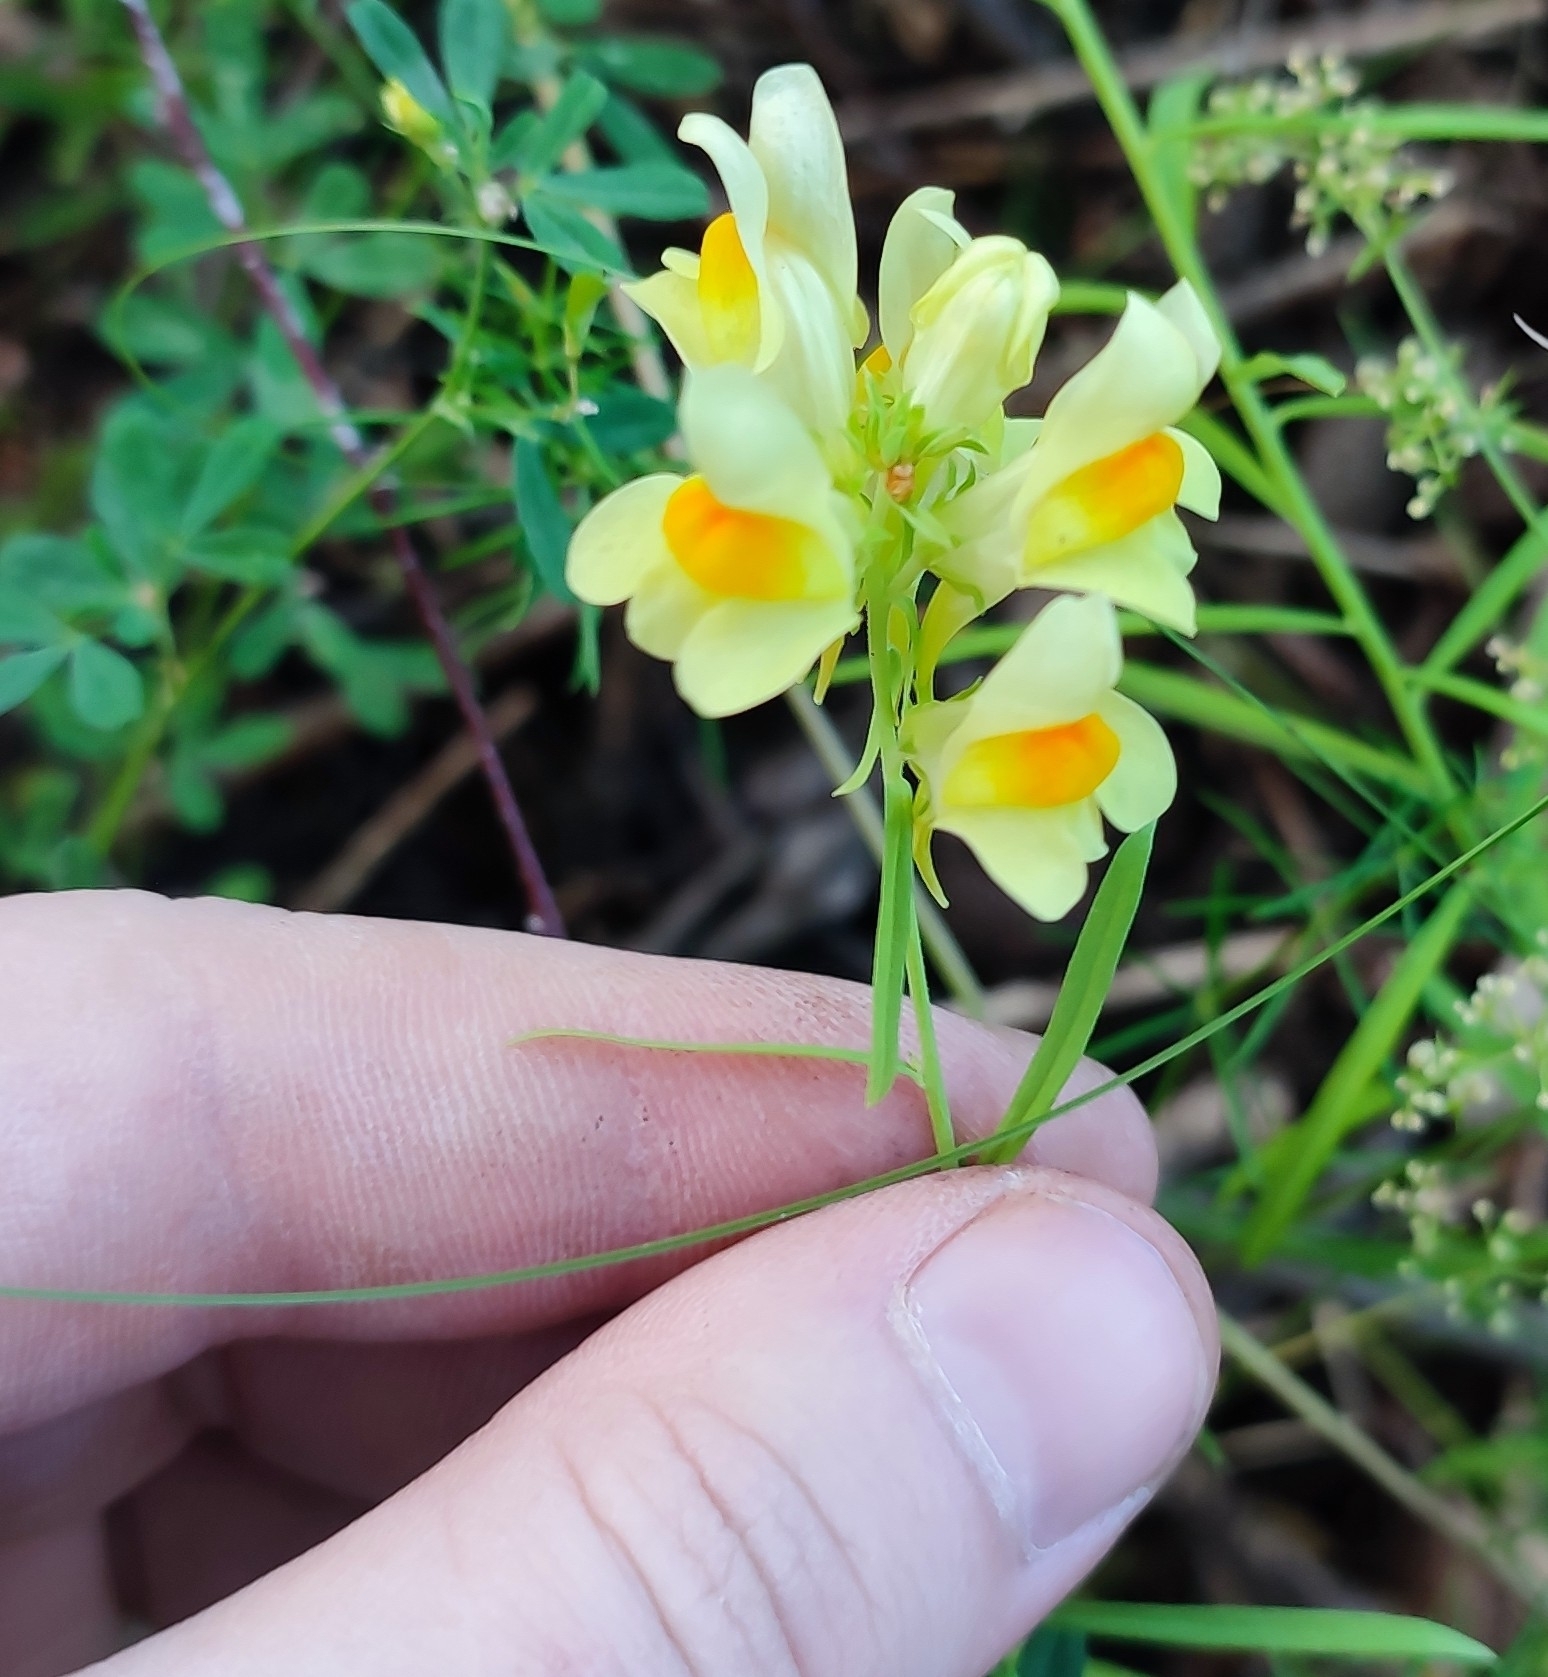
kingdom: Plantae
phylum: Tracheophyta
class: Magnoliopsida
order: Lamiales
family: Plantaginaceae
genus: Linaria
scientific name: Linaria vulgaris
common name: Butter and eggs
